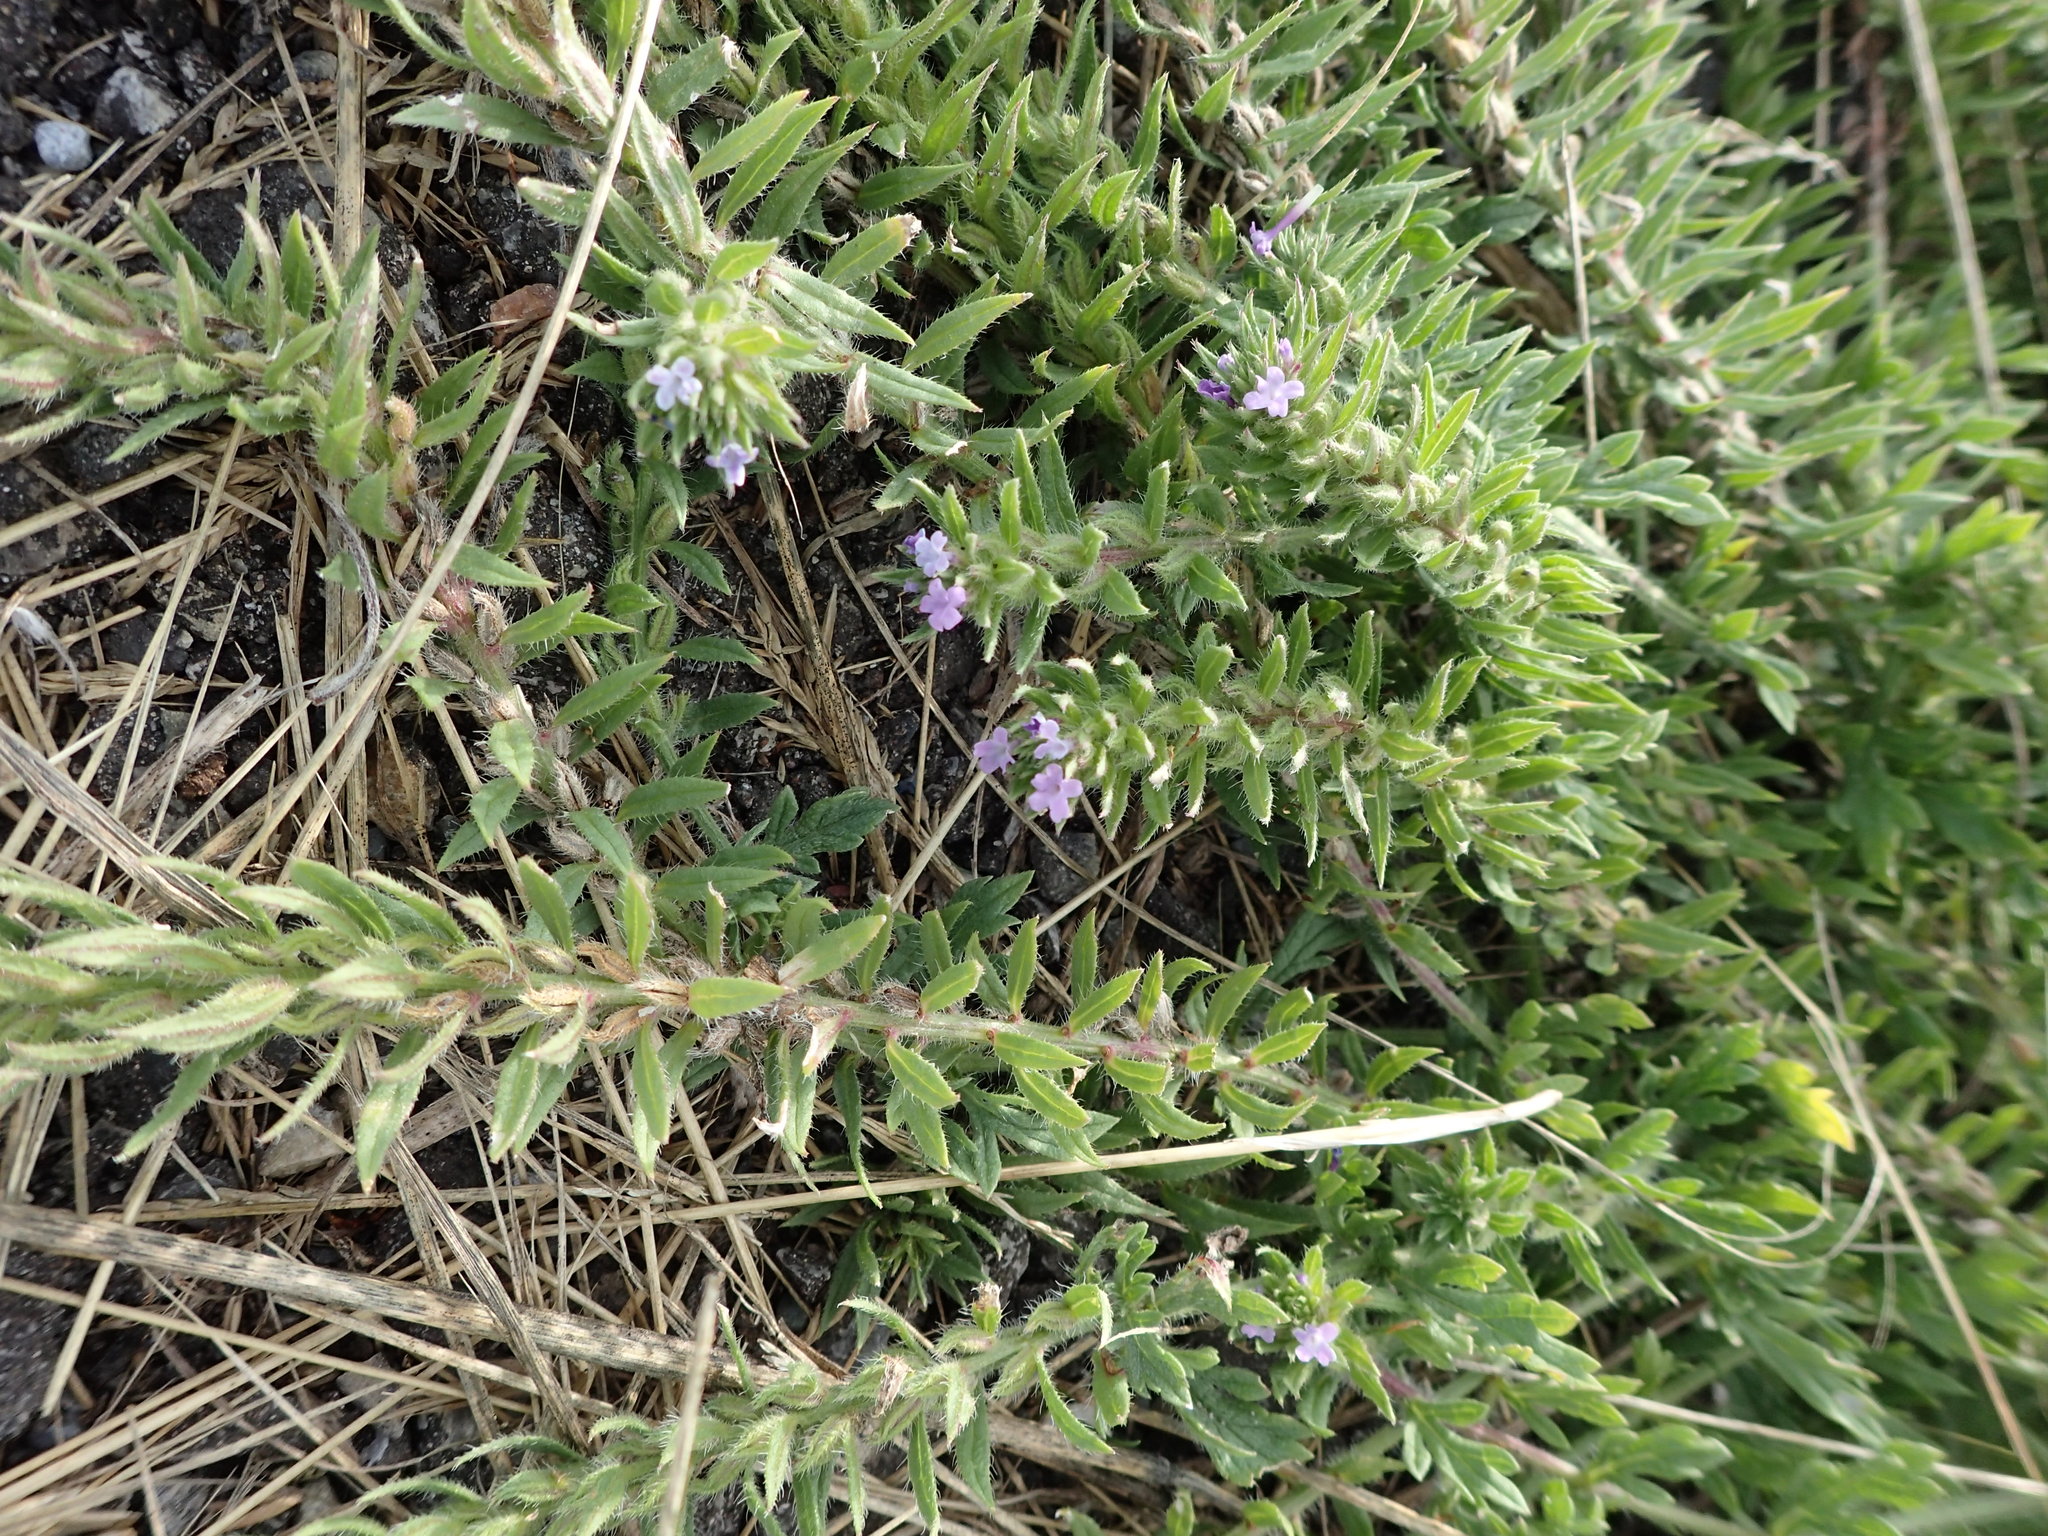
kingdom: Plantae
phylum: Tracheophyta
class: Magnoliopsida
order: Lamiales
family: Verbenaceae
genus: Verbena
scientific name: Verbena bracteata
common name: Bracted vervain
